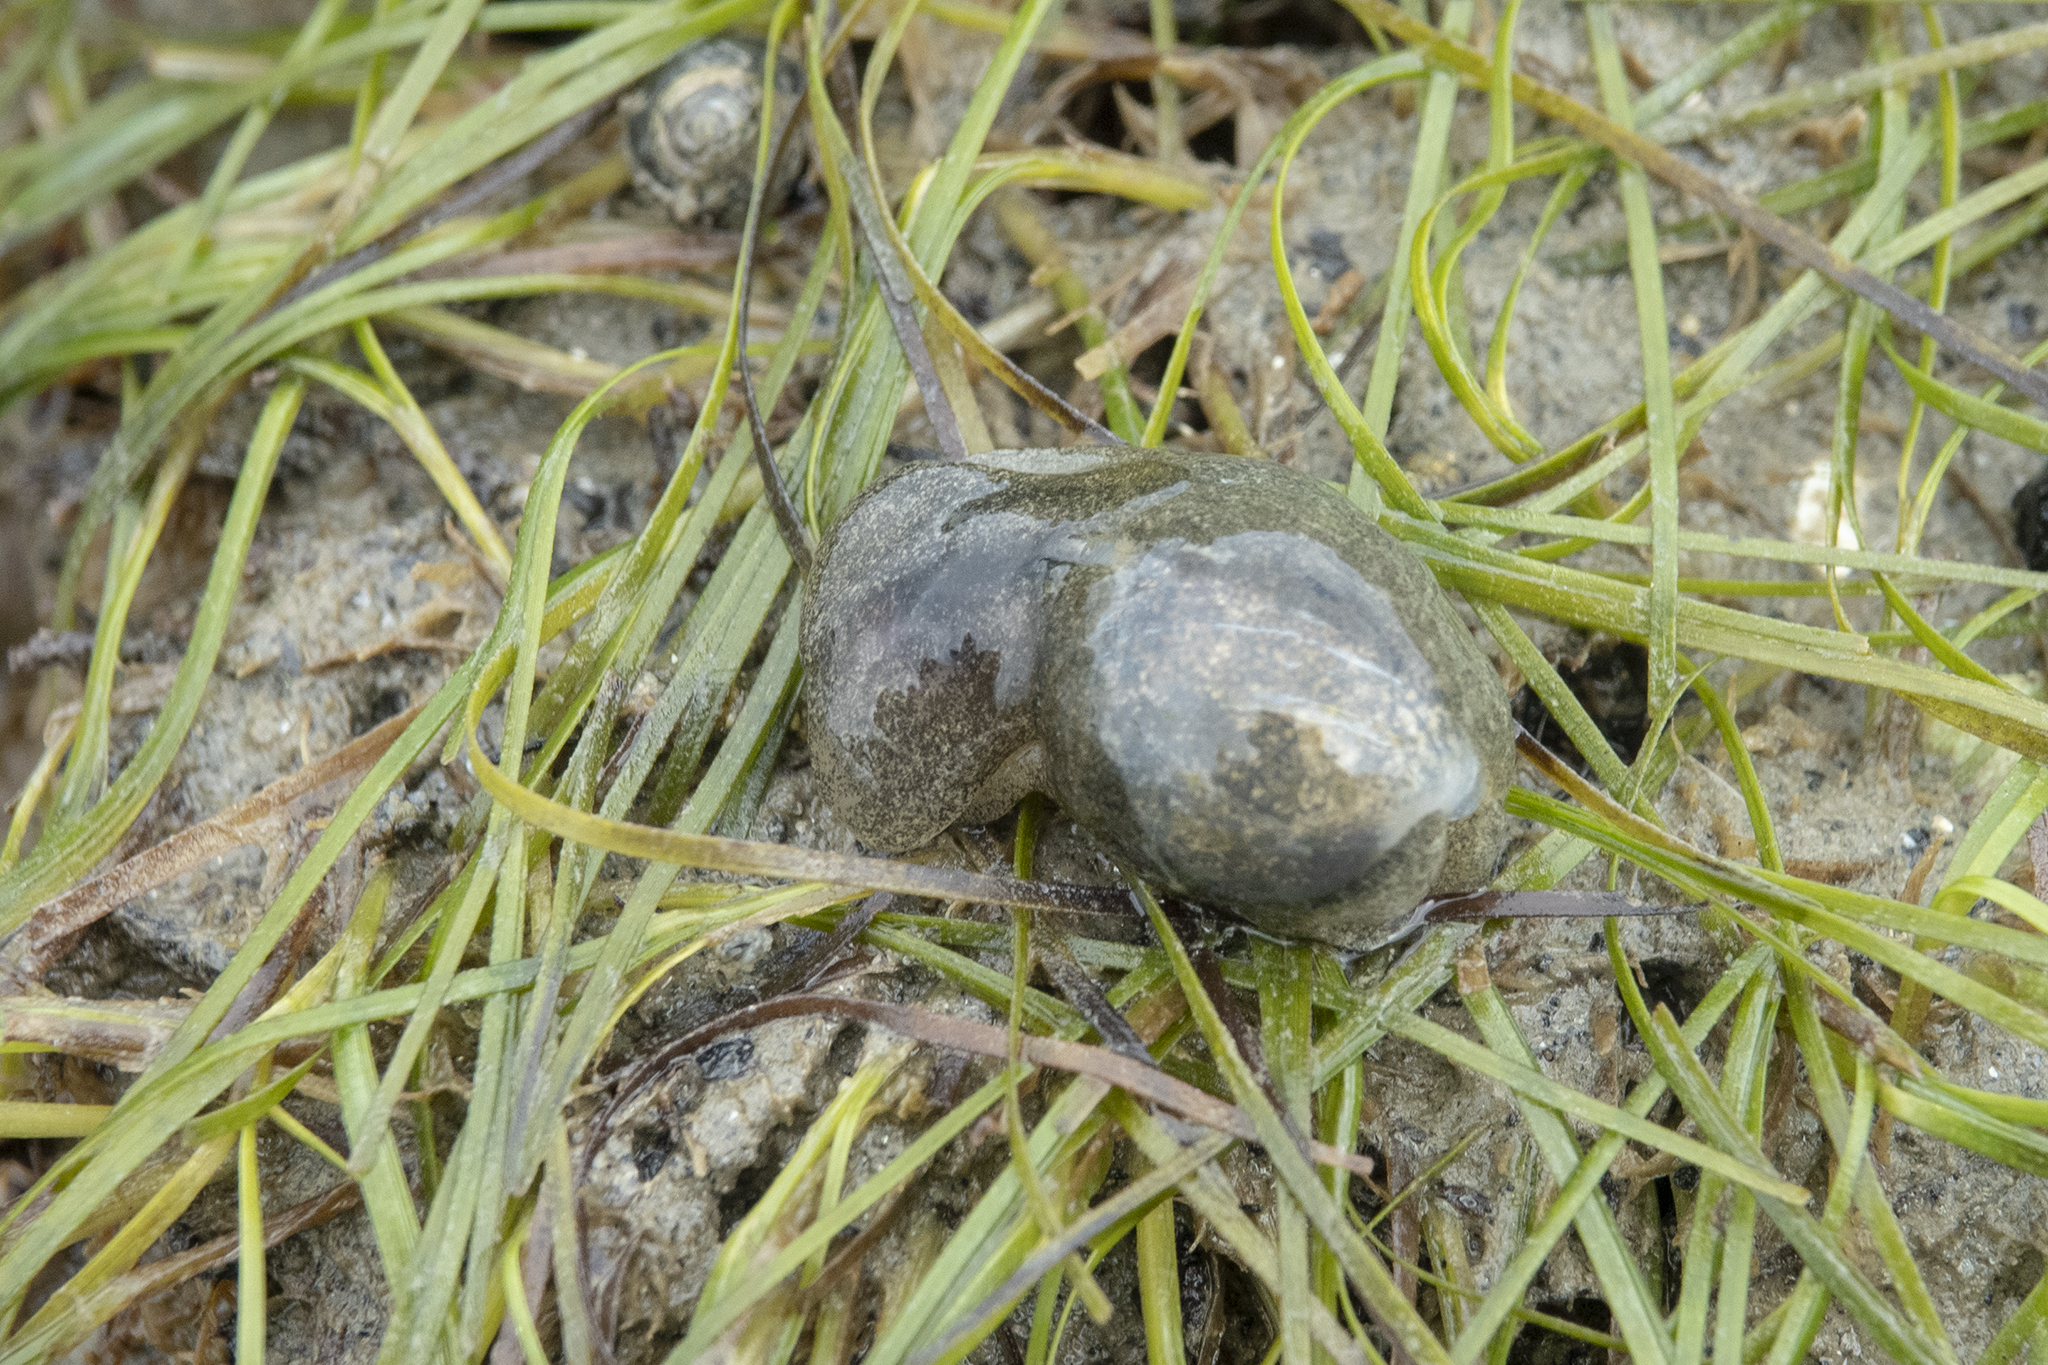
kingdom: Animalia
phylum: Mollusca
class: Gastropoda
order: Cephalaspidea
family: Haminoeidae
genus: Papawera
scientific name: Papawera zelandiae
